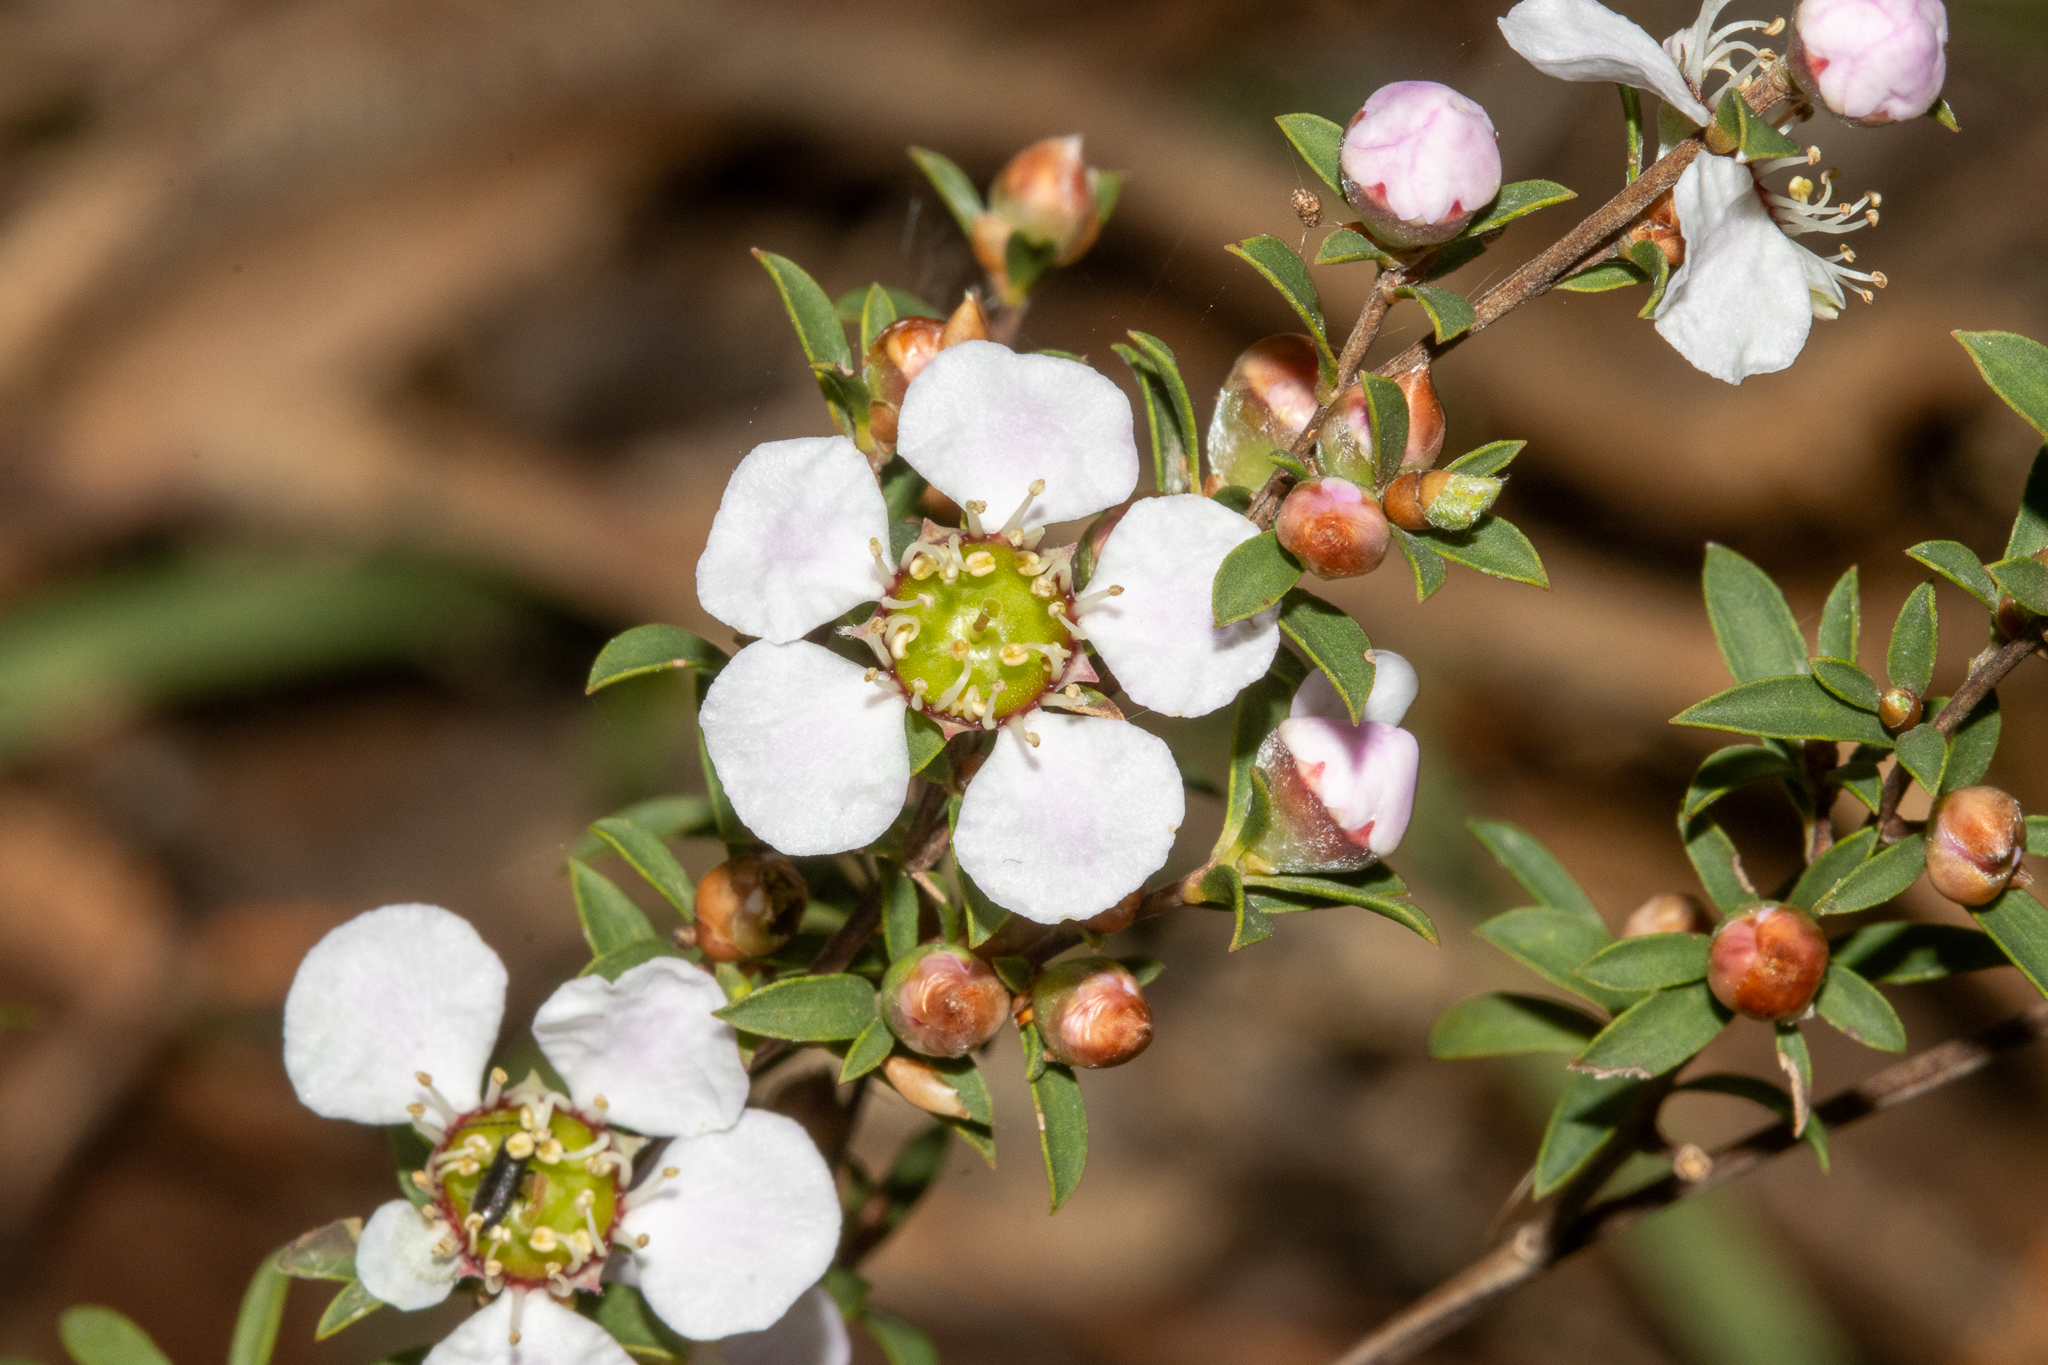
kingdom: Plantae
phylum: Tracheophyta
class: Magnoliopsida
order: Myrtales
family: Myrtaceae
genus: Leptospermum
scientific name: Leptospermum myrsinoides
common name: Heath teatree
